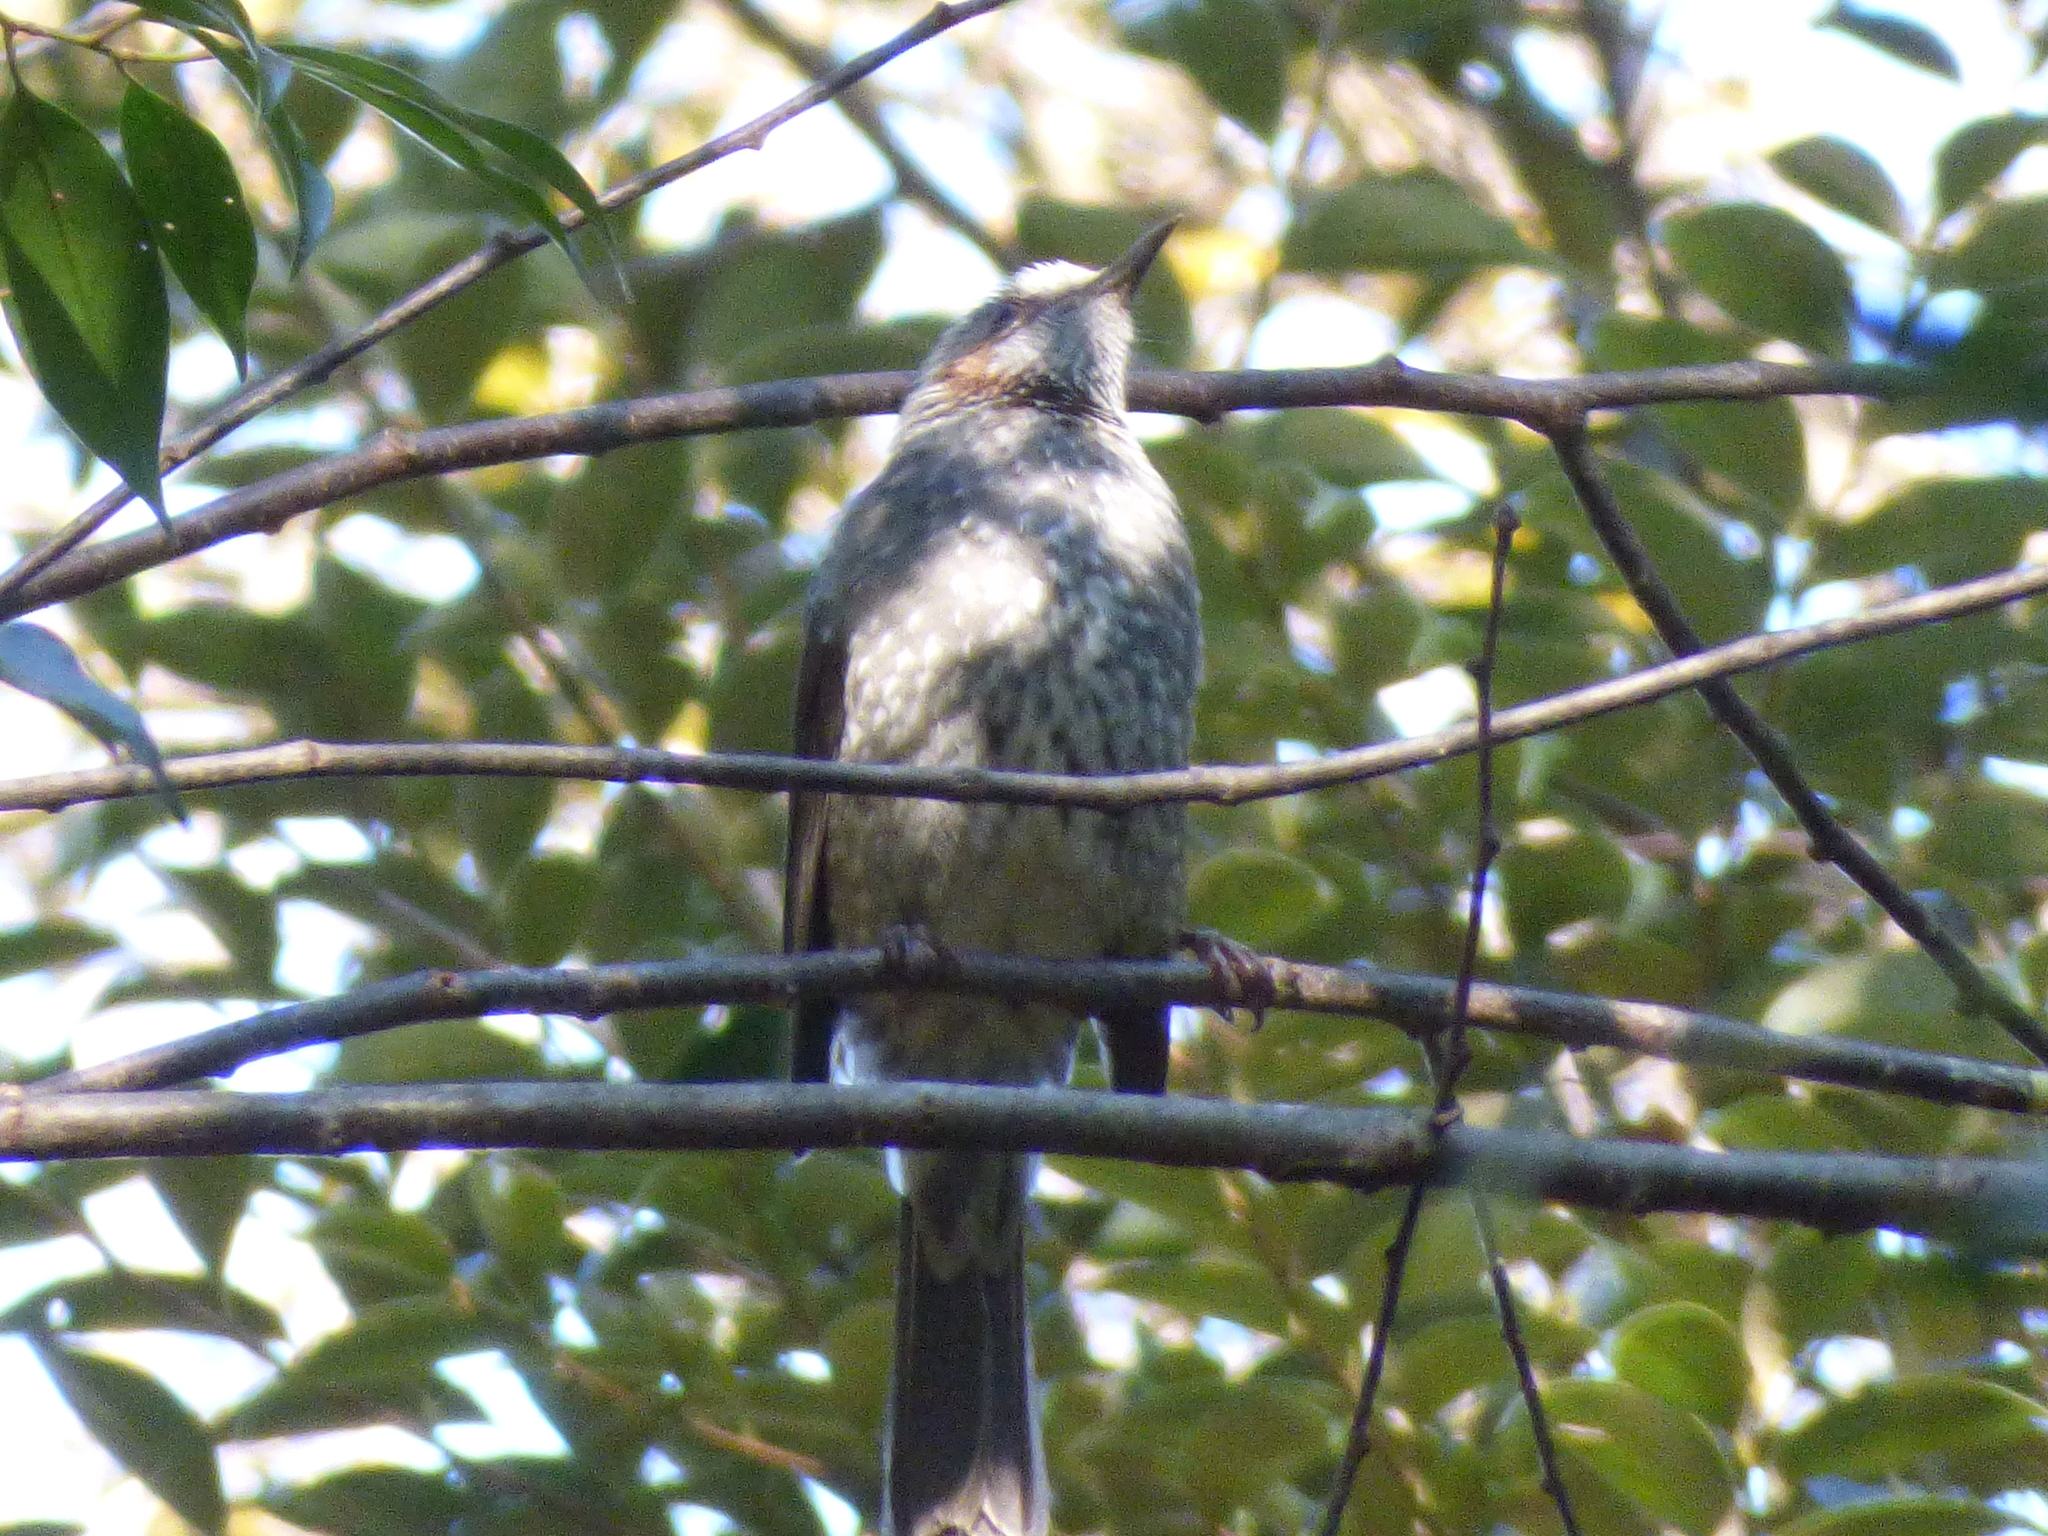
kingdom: Animalia
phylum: Chordata
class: Aves
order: Passeriformes
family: Pycnonotidae
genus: Hypsipetes
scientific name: Hypsipetes amaurotis
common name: Brown-eared bulbul
